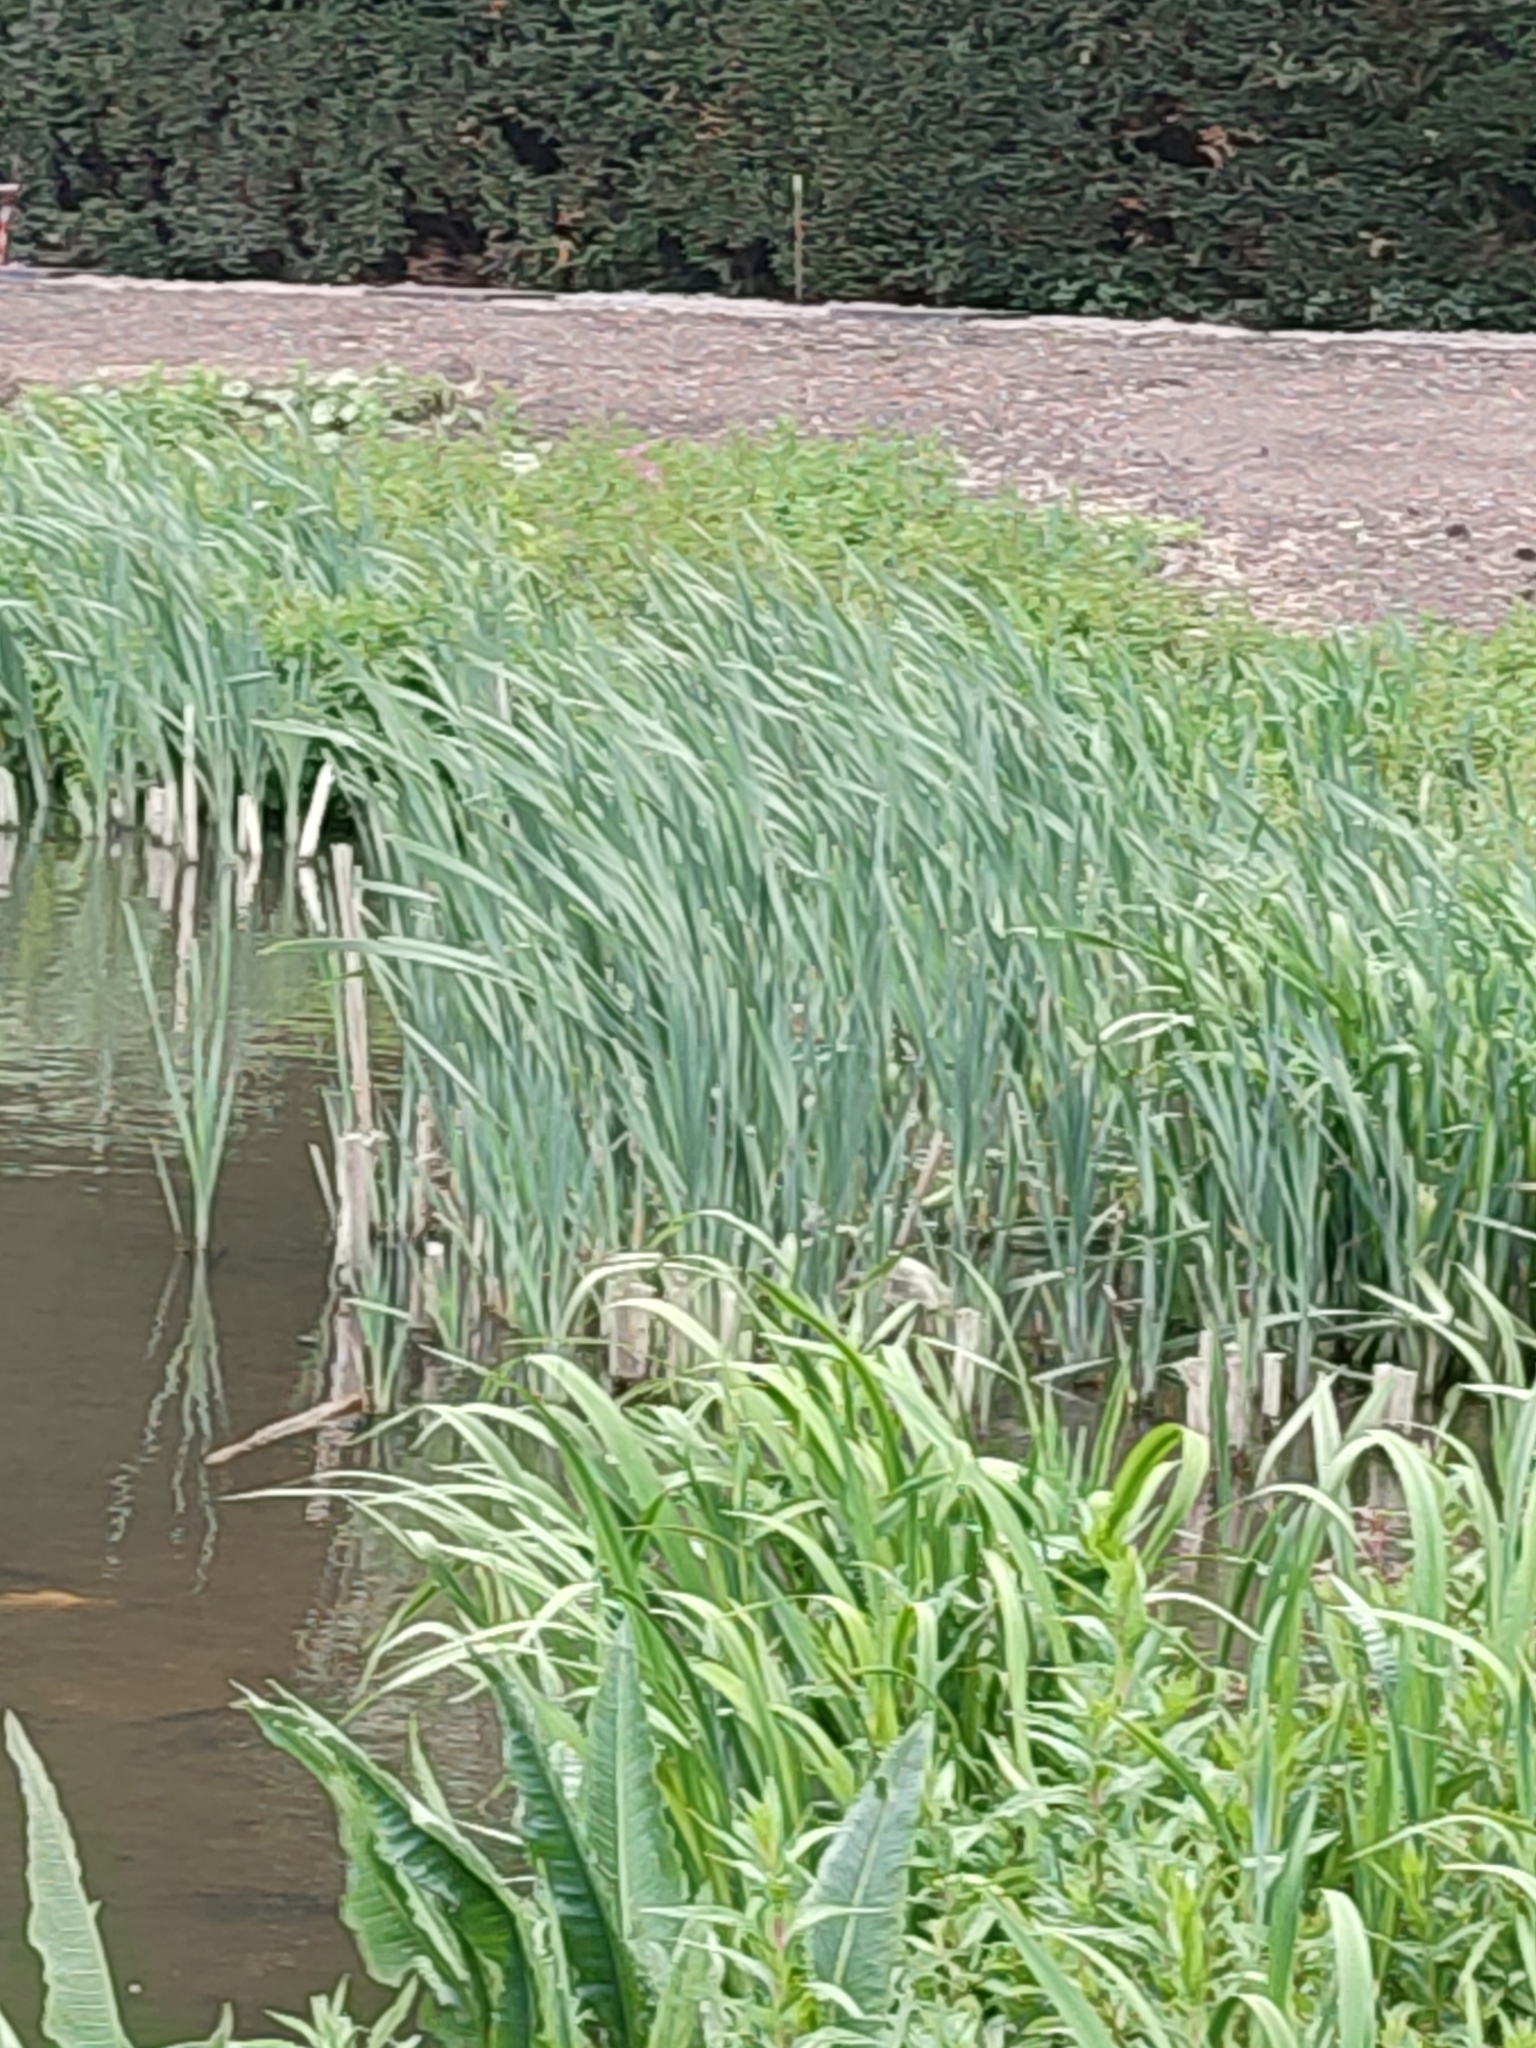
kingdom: Plantae
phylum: Tracheophyta
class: Liliopsida
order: Poales
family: Typhaceae
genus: Typha
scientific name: Typha latifolia
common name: Broadleaf cattail
